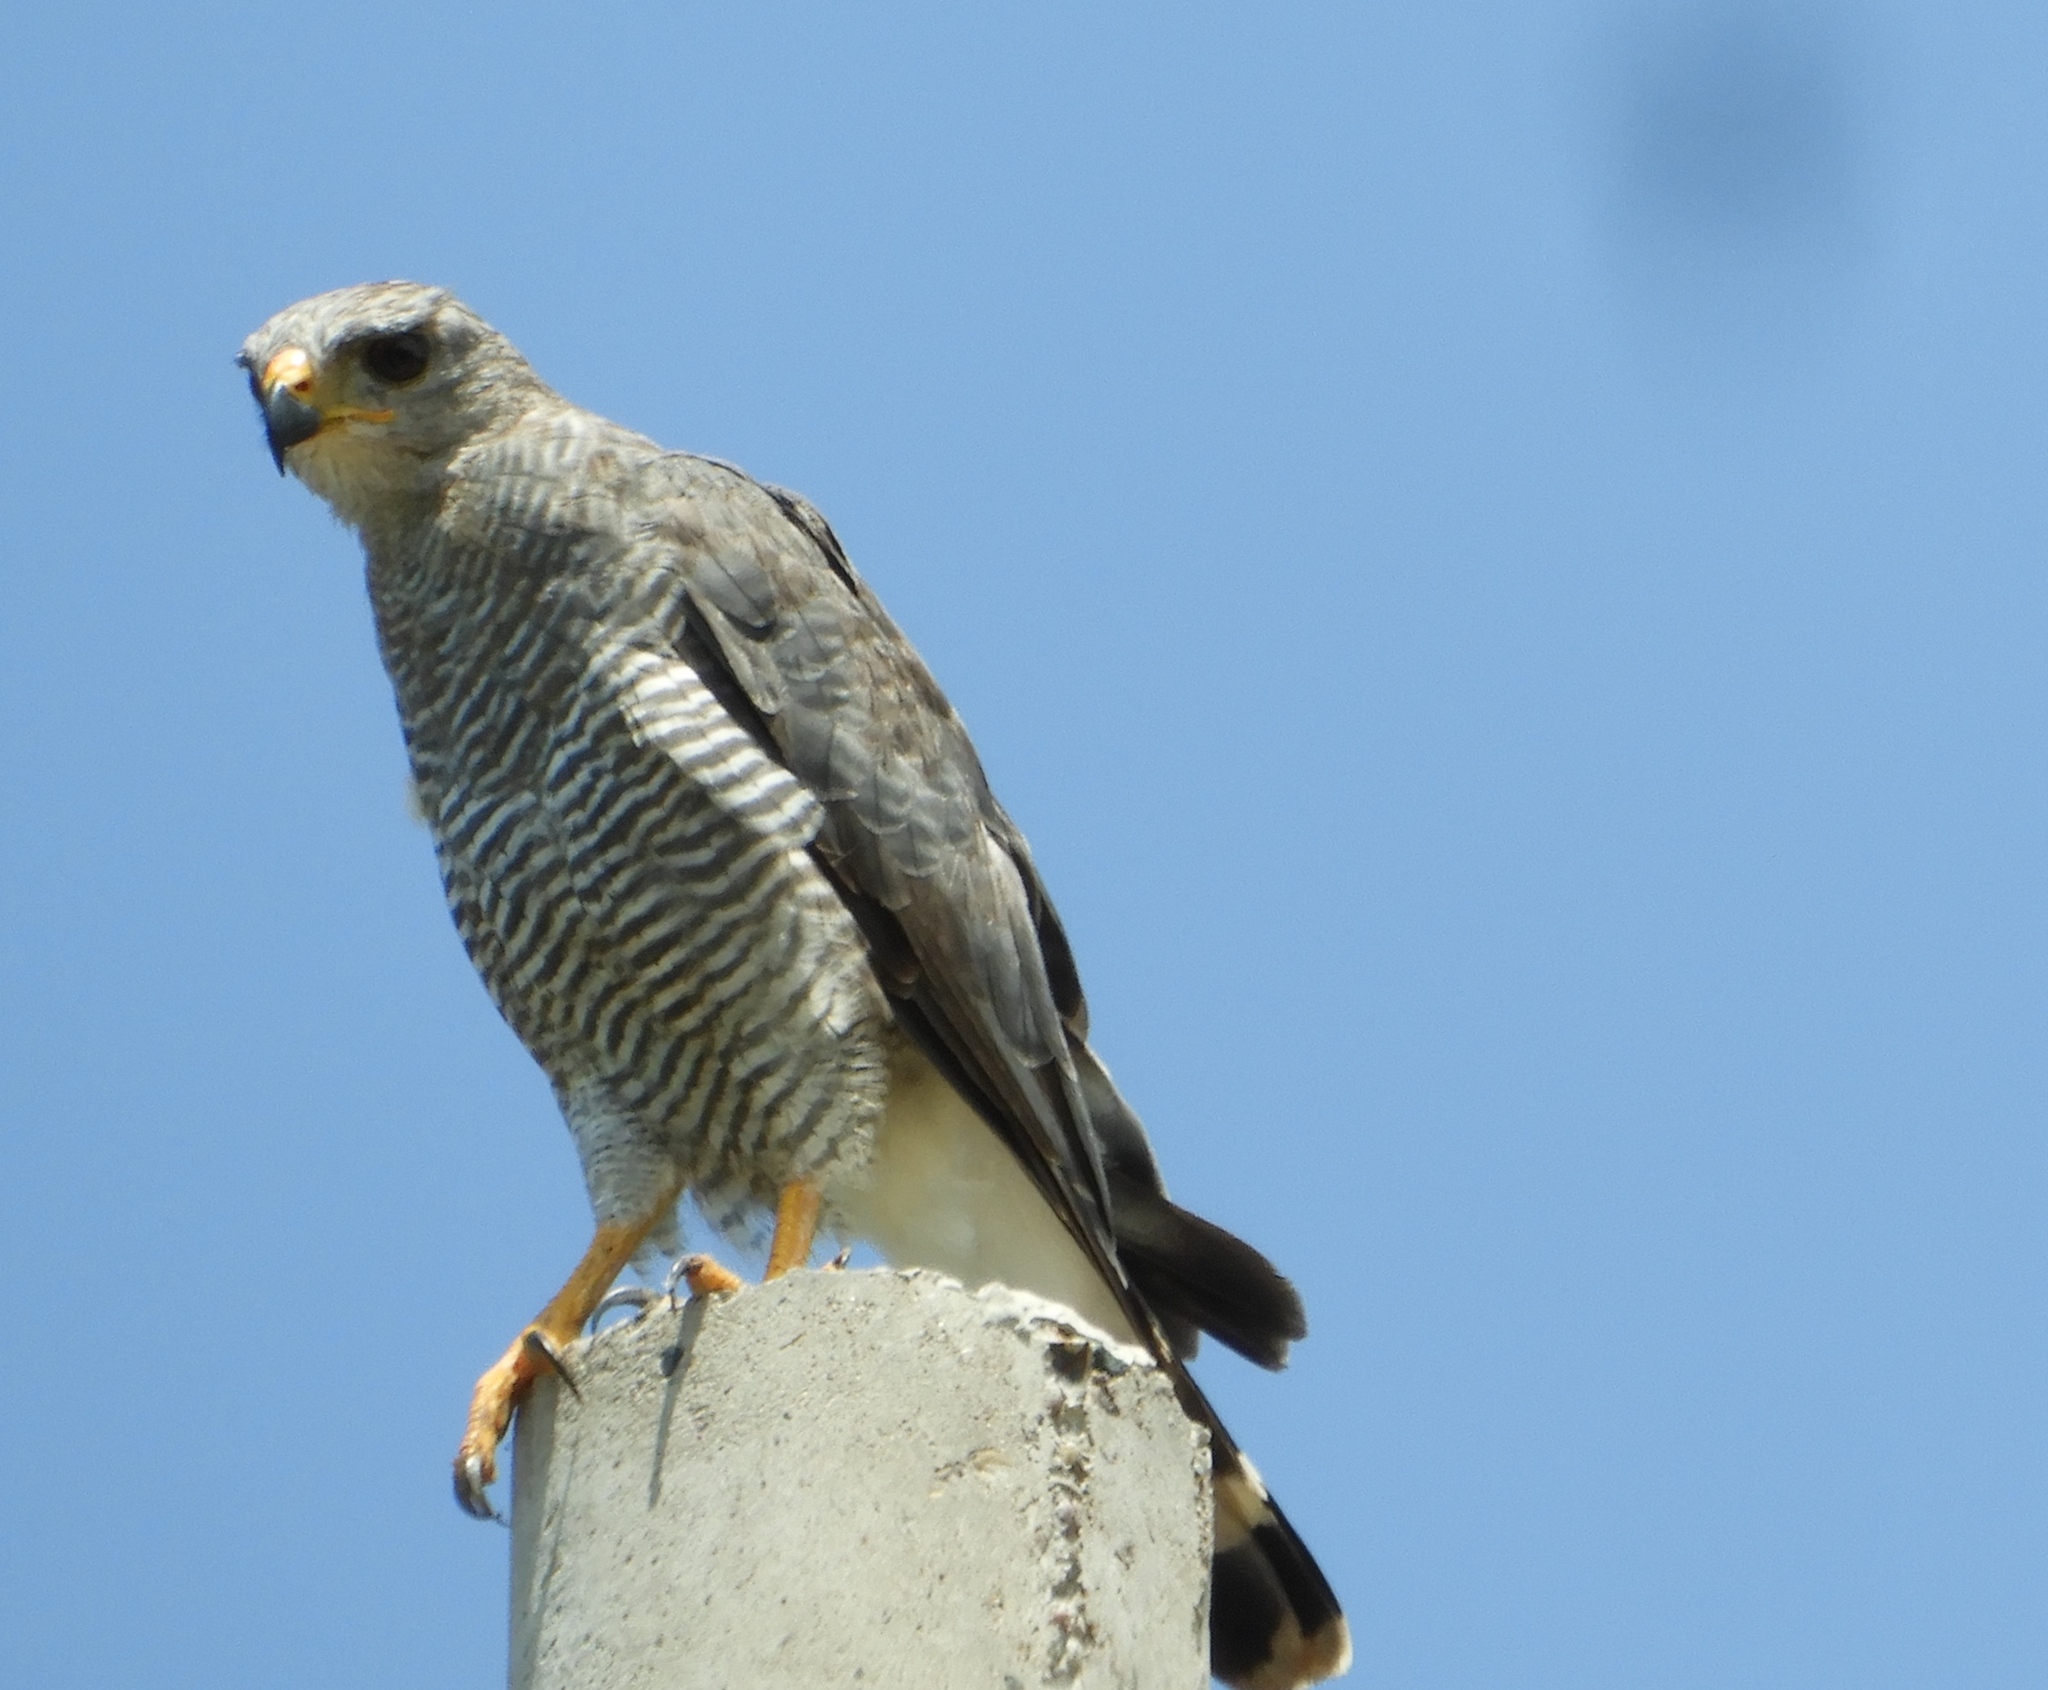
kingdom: Animalia
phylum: Chordata
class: Aves
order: Accipitriformes
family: Accipitridae
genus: Buteo
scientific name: Buteo nitidus
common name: Grey-lined hawk
